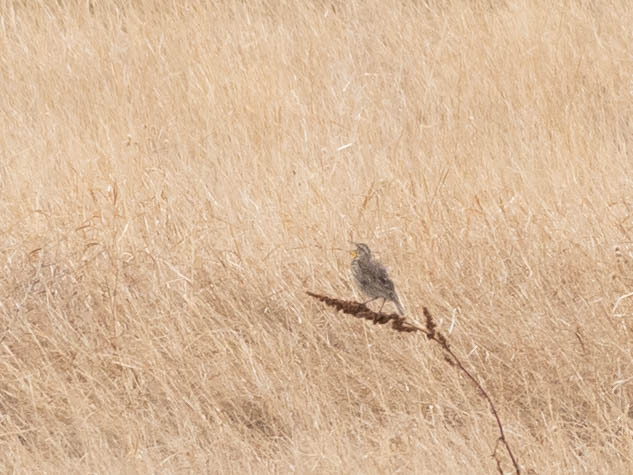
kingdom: Animalia
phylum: Chordata
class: Aves
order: Passeriformes
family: Icteridae
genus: Sturnella
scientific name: Sturnella neglecta
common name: Western meadowlark
